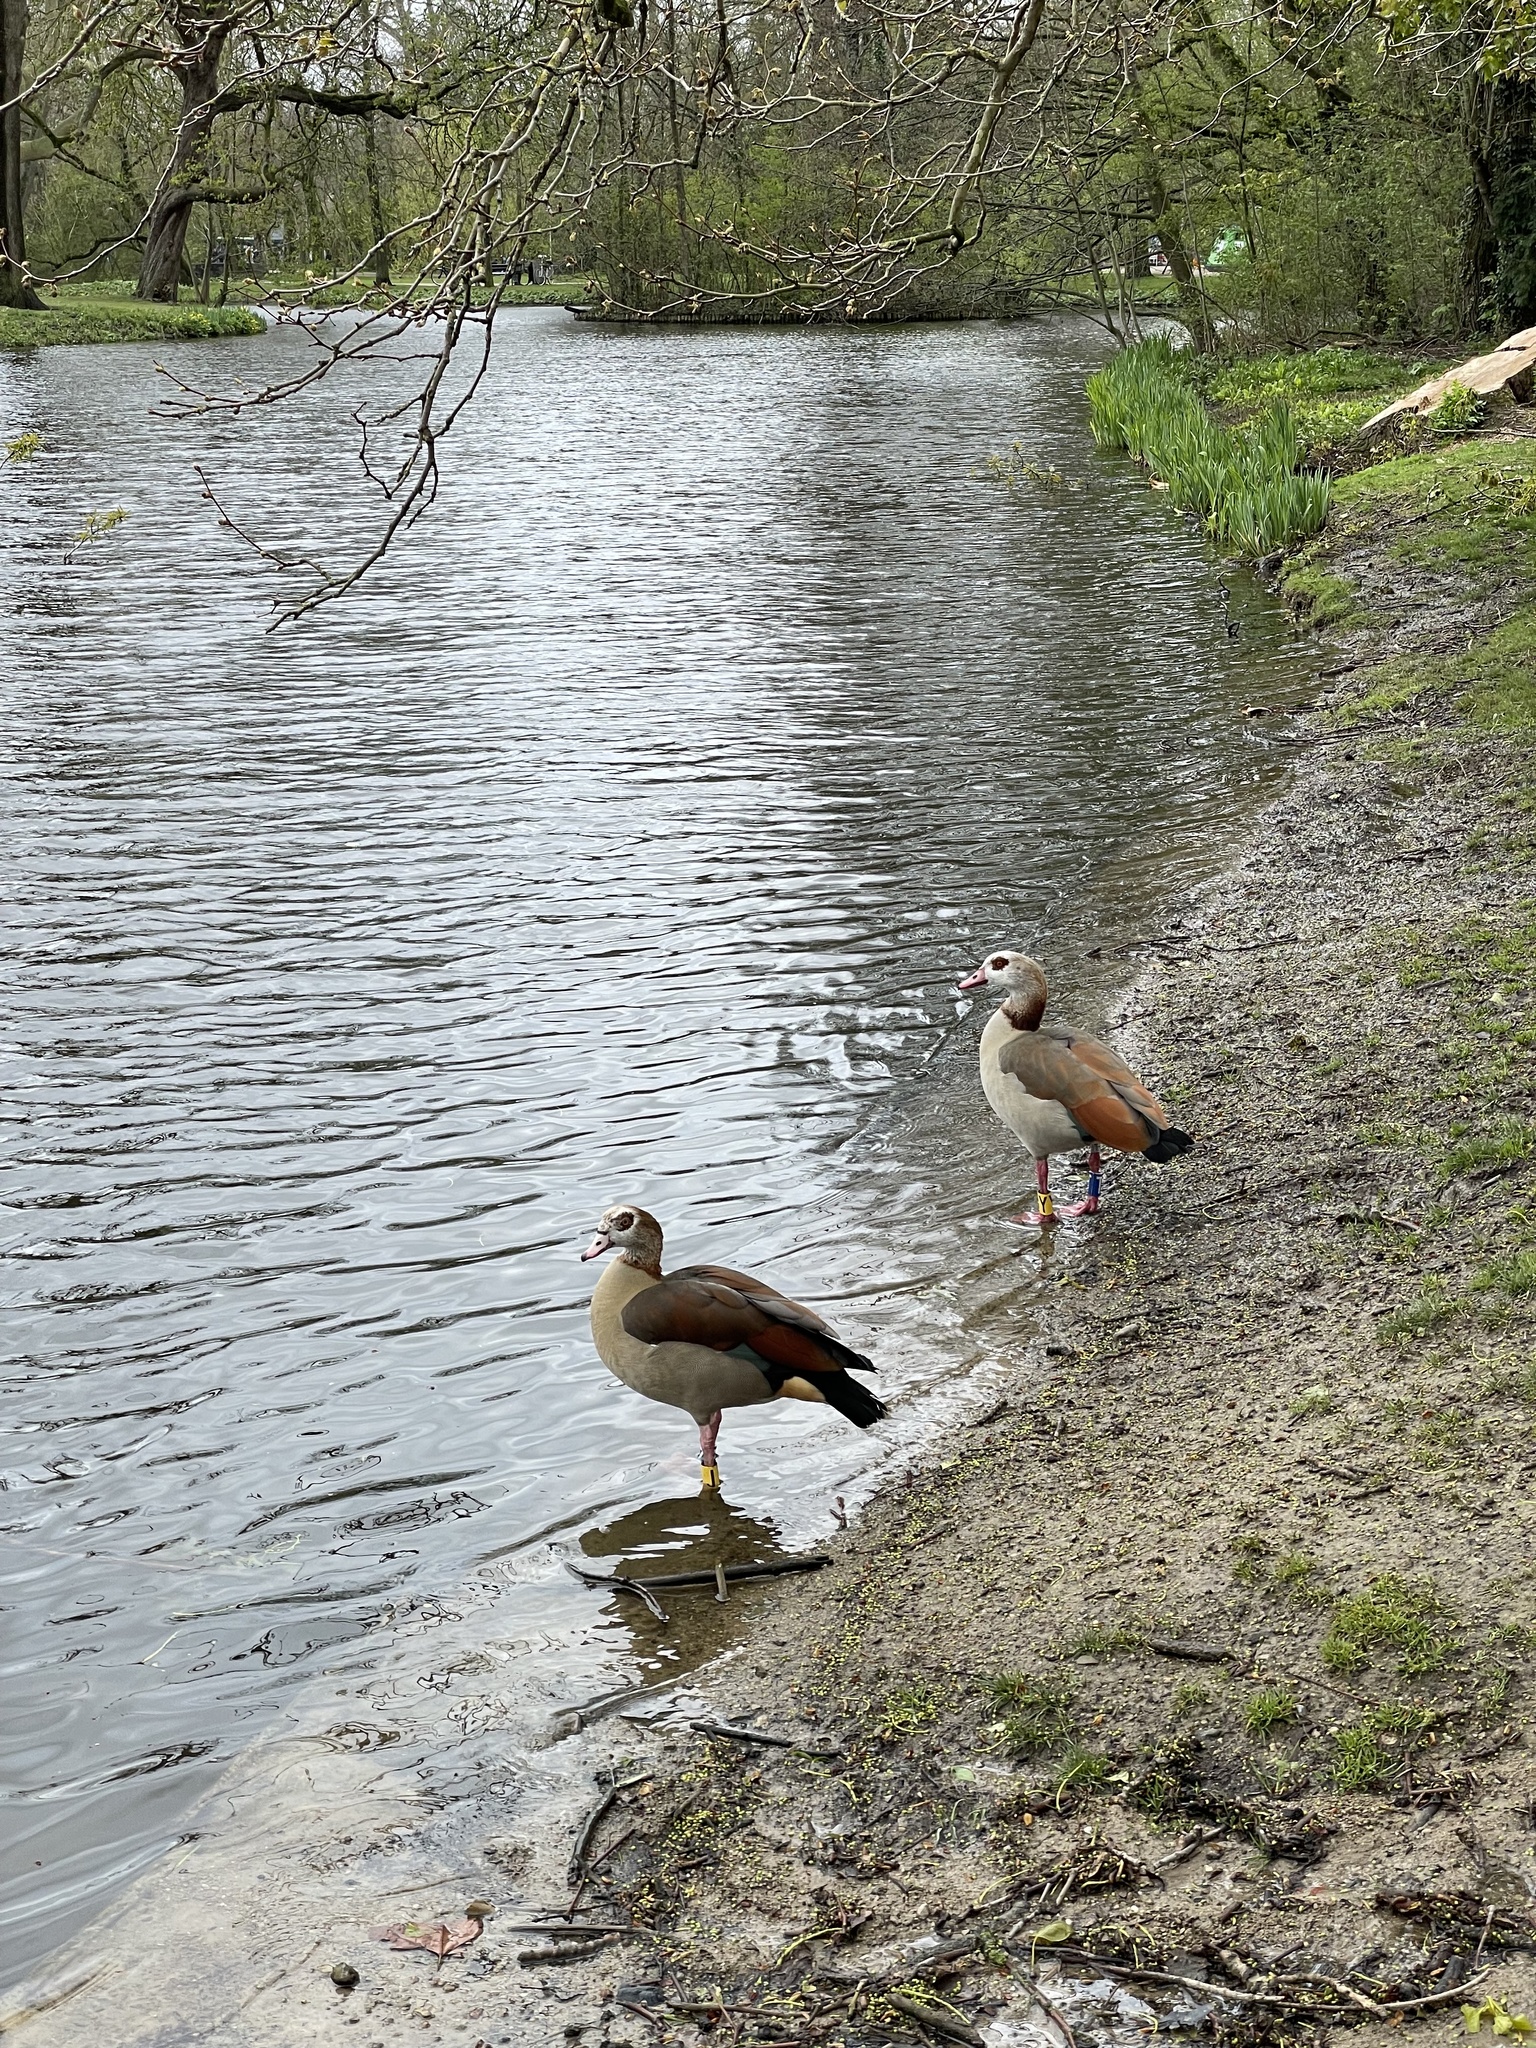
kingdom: Animalia
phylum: Chordata
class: Aves
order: Anseriformes
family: Anatidae
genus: Alopochen
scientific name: Alopochen aegyptiaca
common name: Egyptian goose
